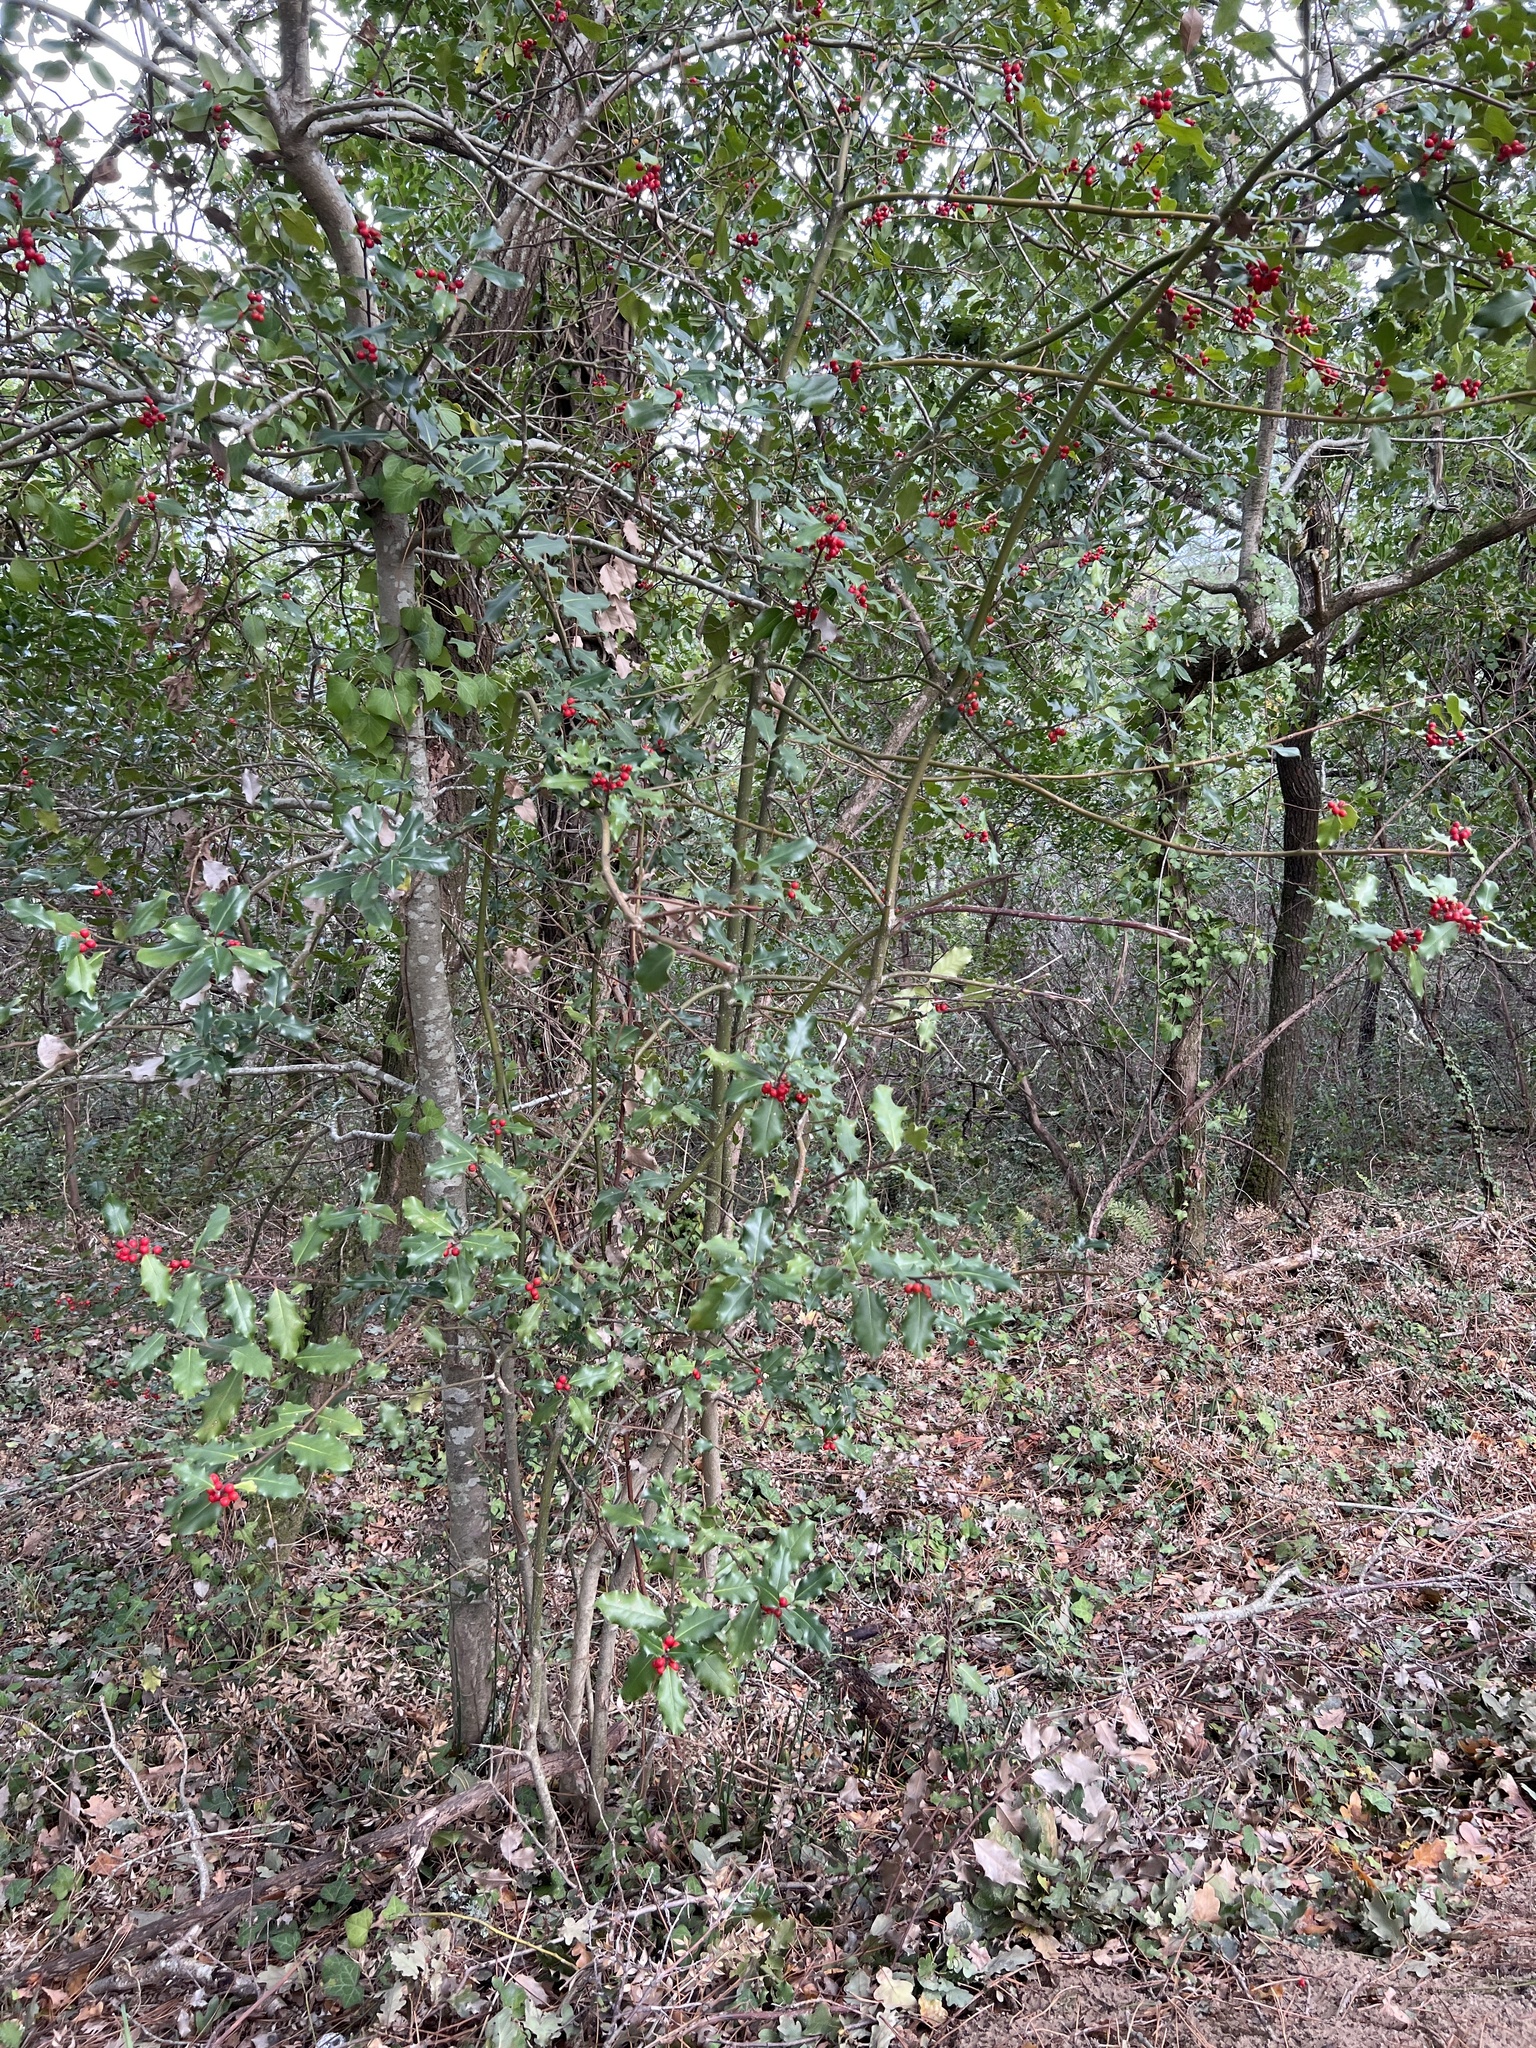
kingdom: Plantae
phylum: Tracheophyta
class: Magnoliopsida
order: Aquifoliales
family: Aquifoliaceae
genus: Ilex
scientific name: Ilex aquifolium
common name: English holly
